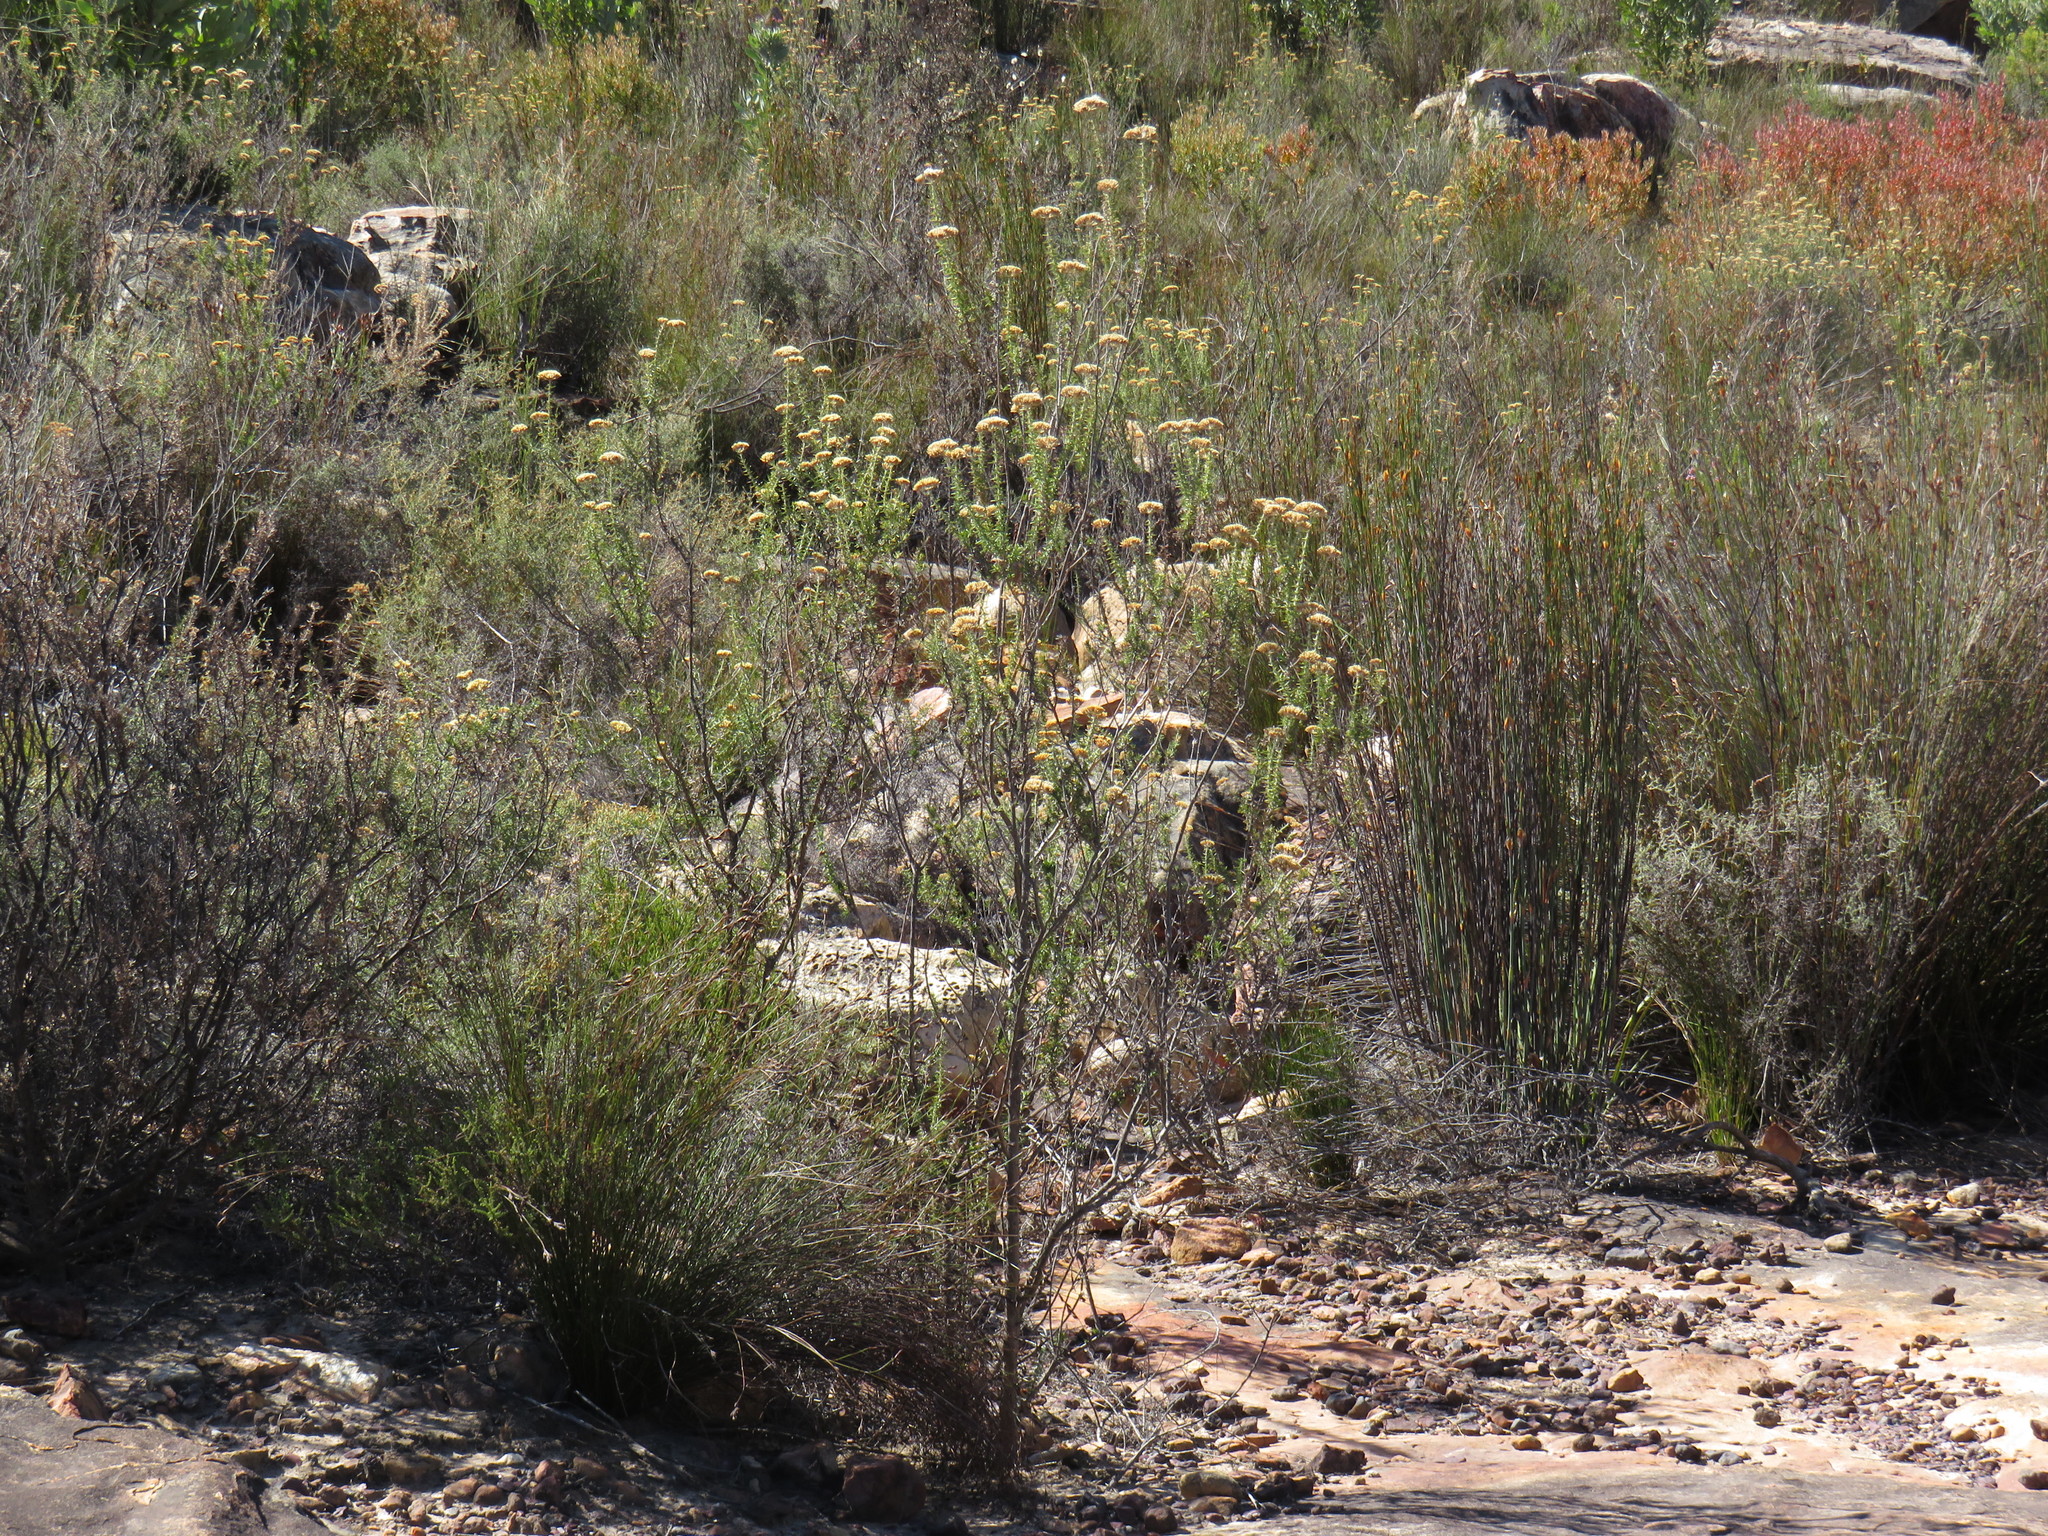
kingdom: Plantae
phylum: Tracheophyta
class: Magnoliopsida
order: Asterales
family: Asteraceae
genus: Metalasia
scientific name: Metalasia dregeana
